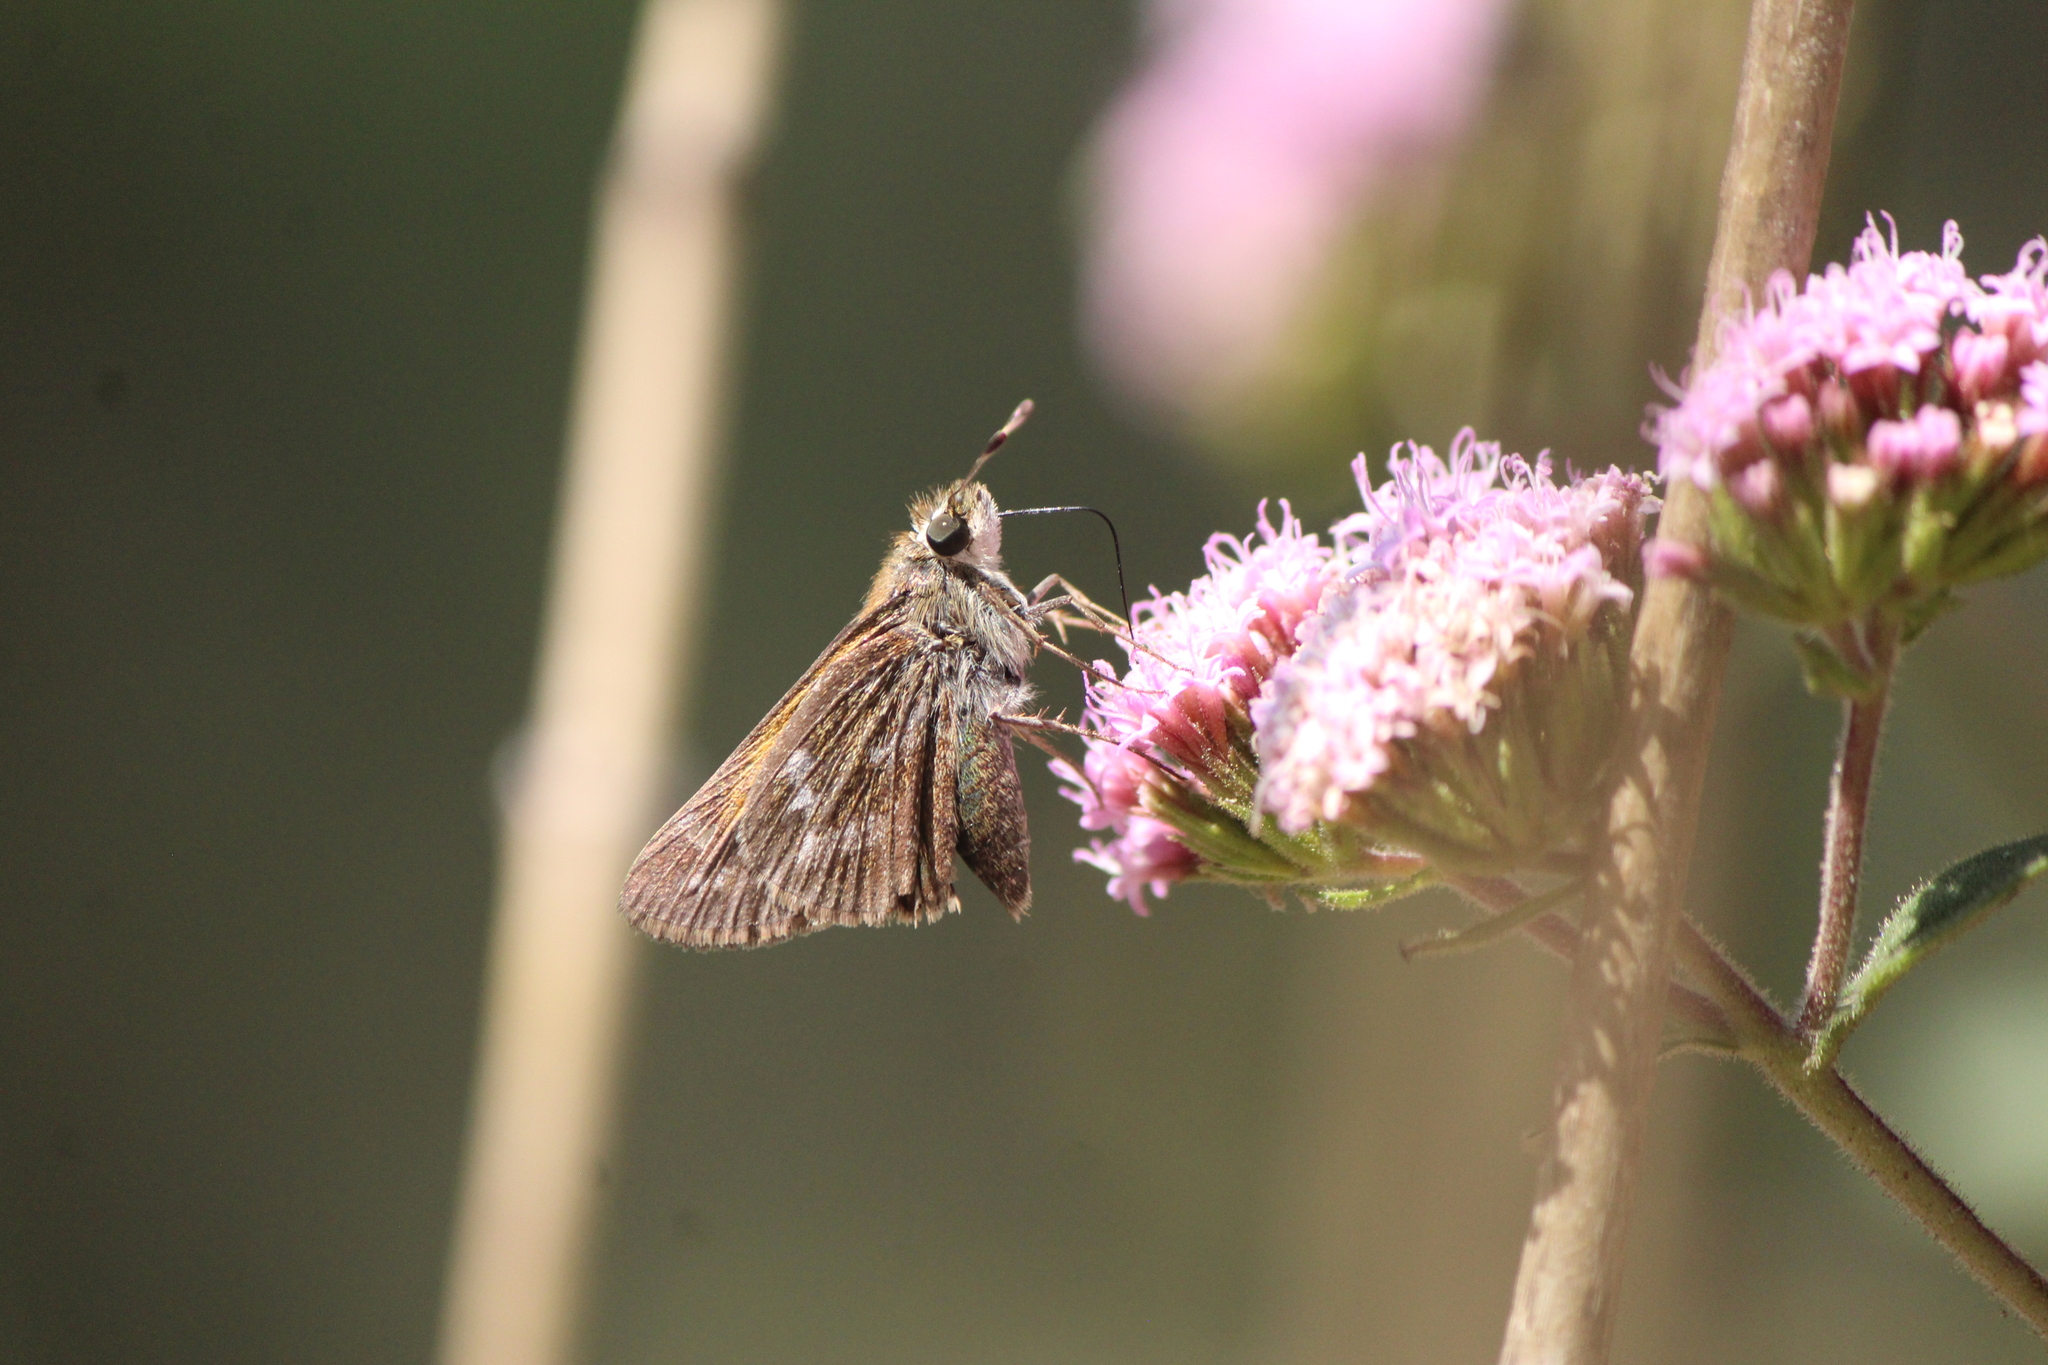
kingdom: Animalia
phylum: Arthropoda
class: Insecta
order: Lepidoptera
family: Hesperiidae
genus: Atalopedes
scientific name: Atalopedes
